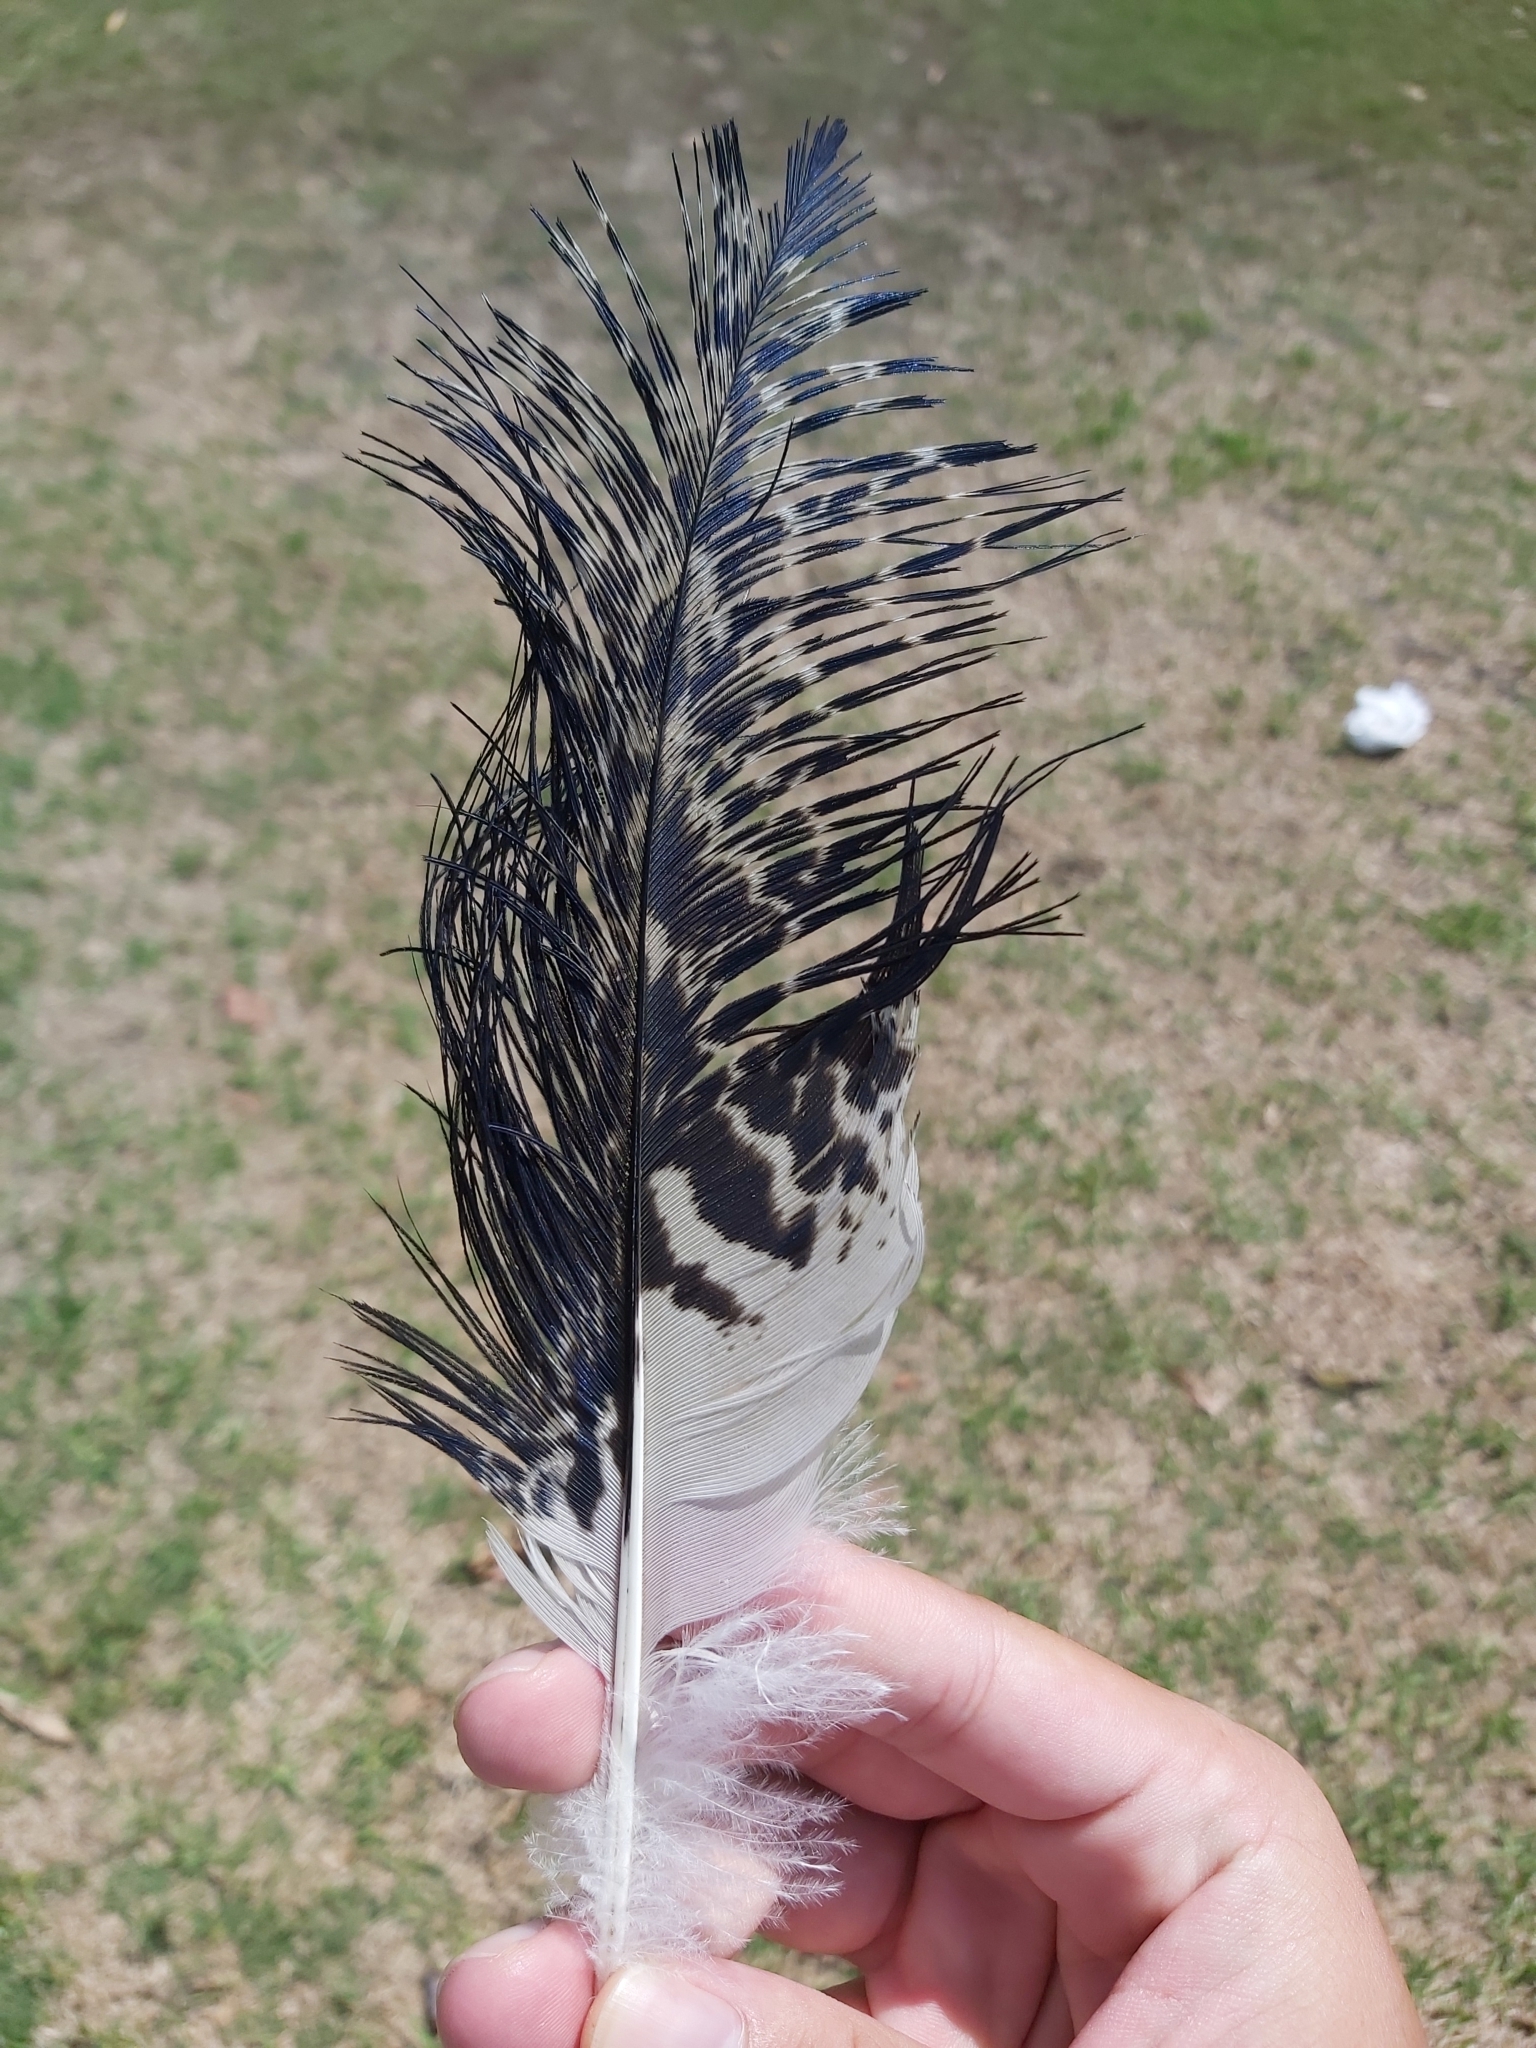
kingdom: Animalia
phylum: Chordata
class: Aves
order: Pelecaniformes
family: Threskiornithidae
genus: Threskiornis
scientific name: Threskiornis molucca
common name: Australian white ibis
